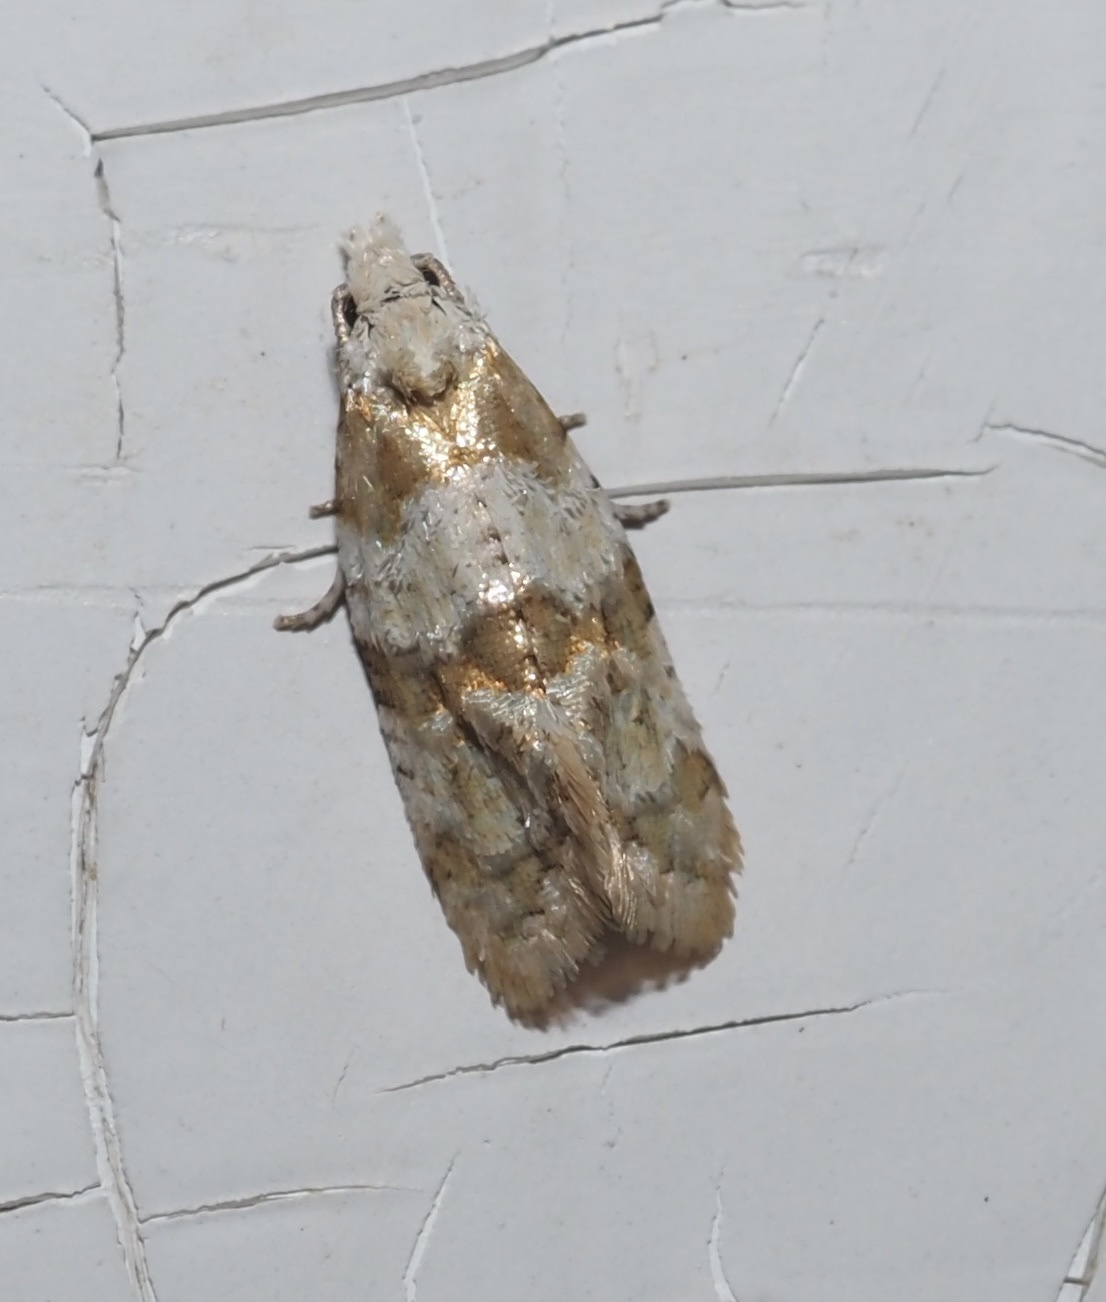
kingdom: Animalia
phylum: Arthropoda
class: Insecta
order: Lepidoptera
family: Tortricidae
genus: Aethes
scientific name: Aethes argentilimitana
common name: Silver-bordered aethes
